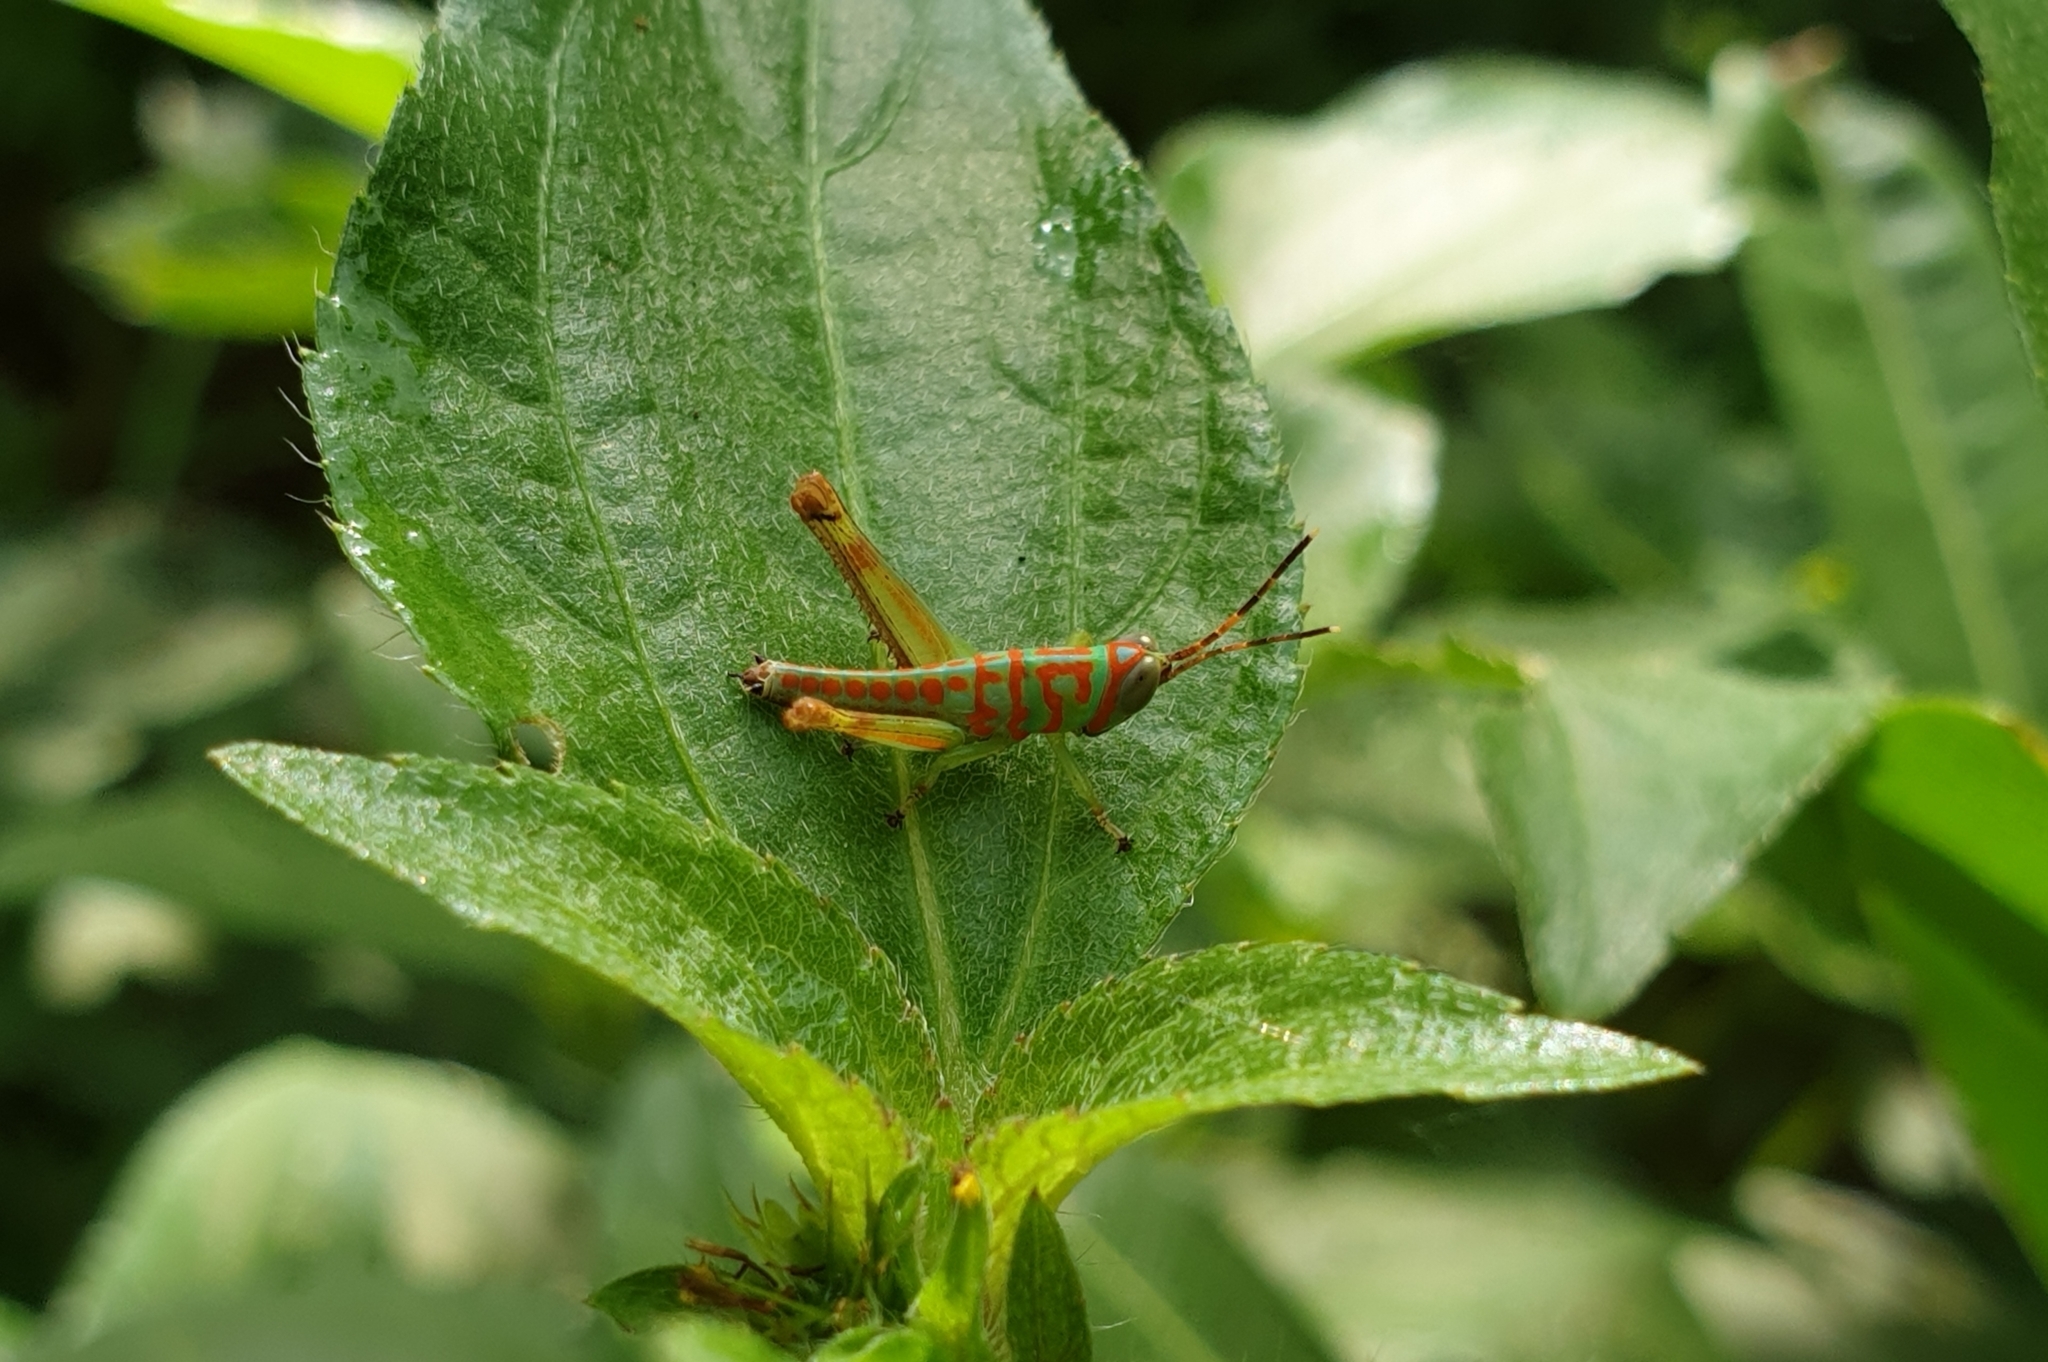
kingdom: Animalia
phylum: Arthropoda
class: Insecta
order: Orthoptera
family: Acrididae
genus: Pirithoicus
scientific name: Pirithoicus ophthalmicus
